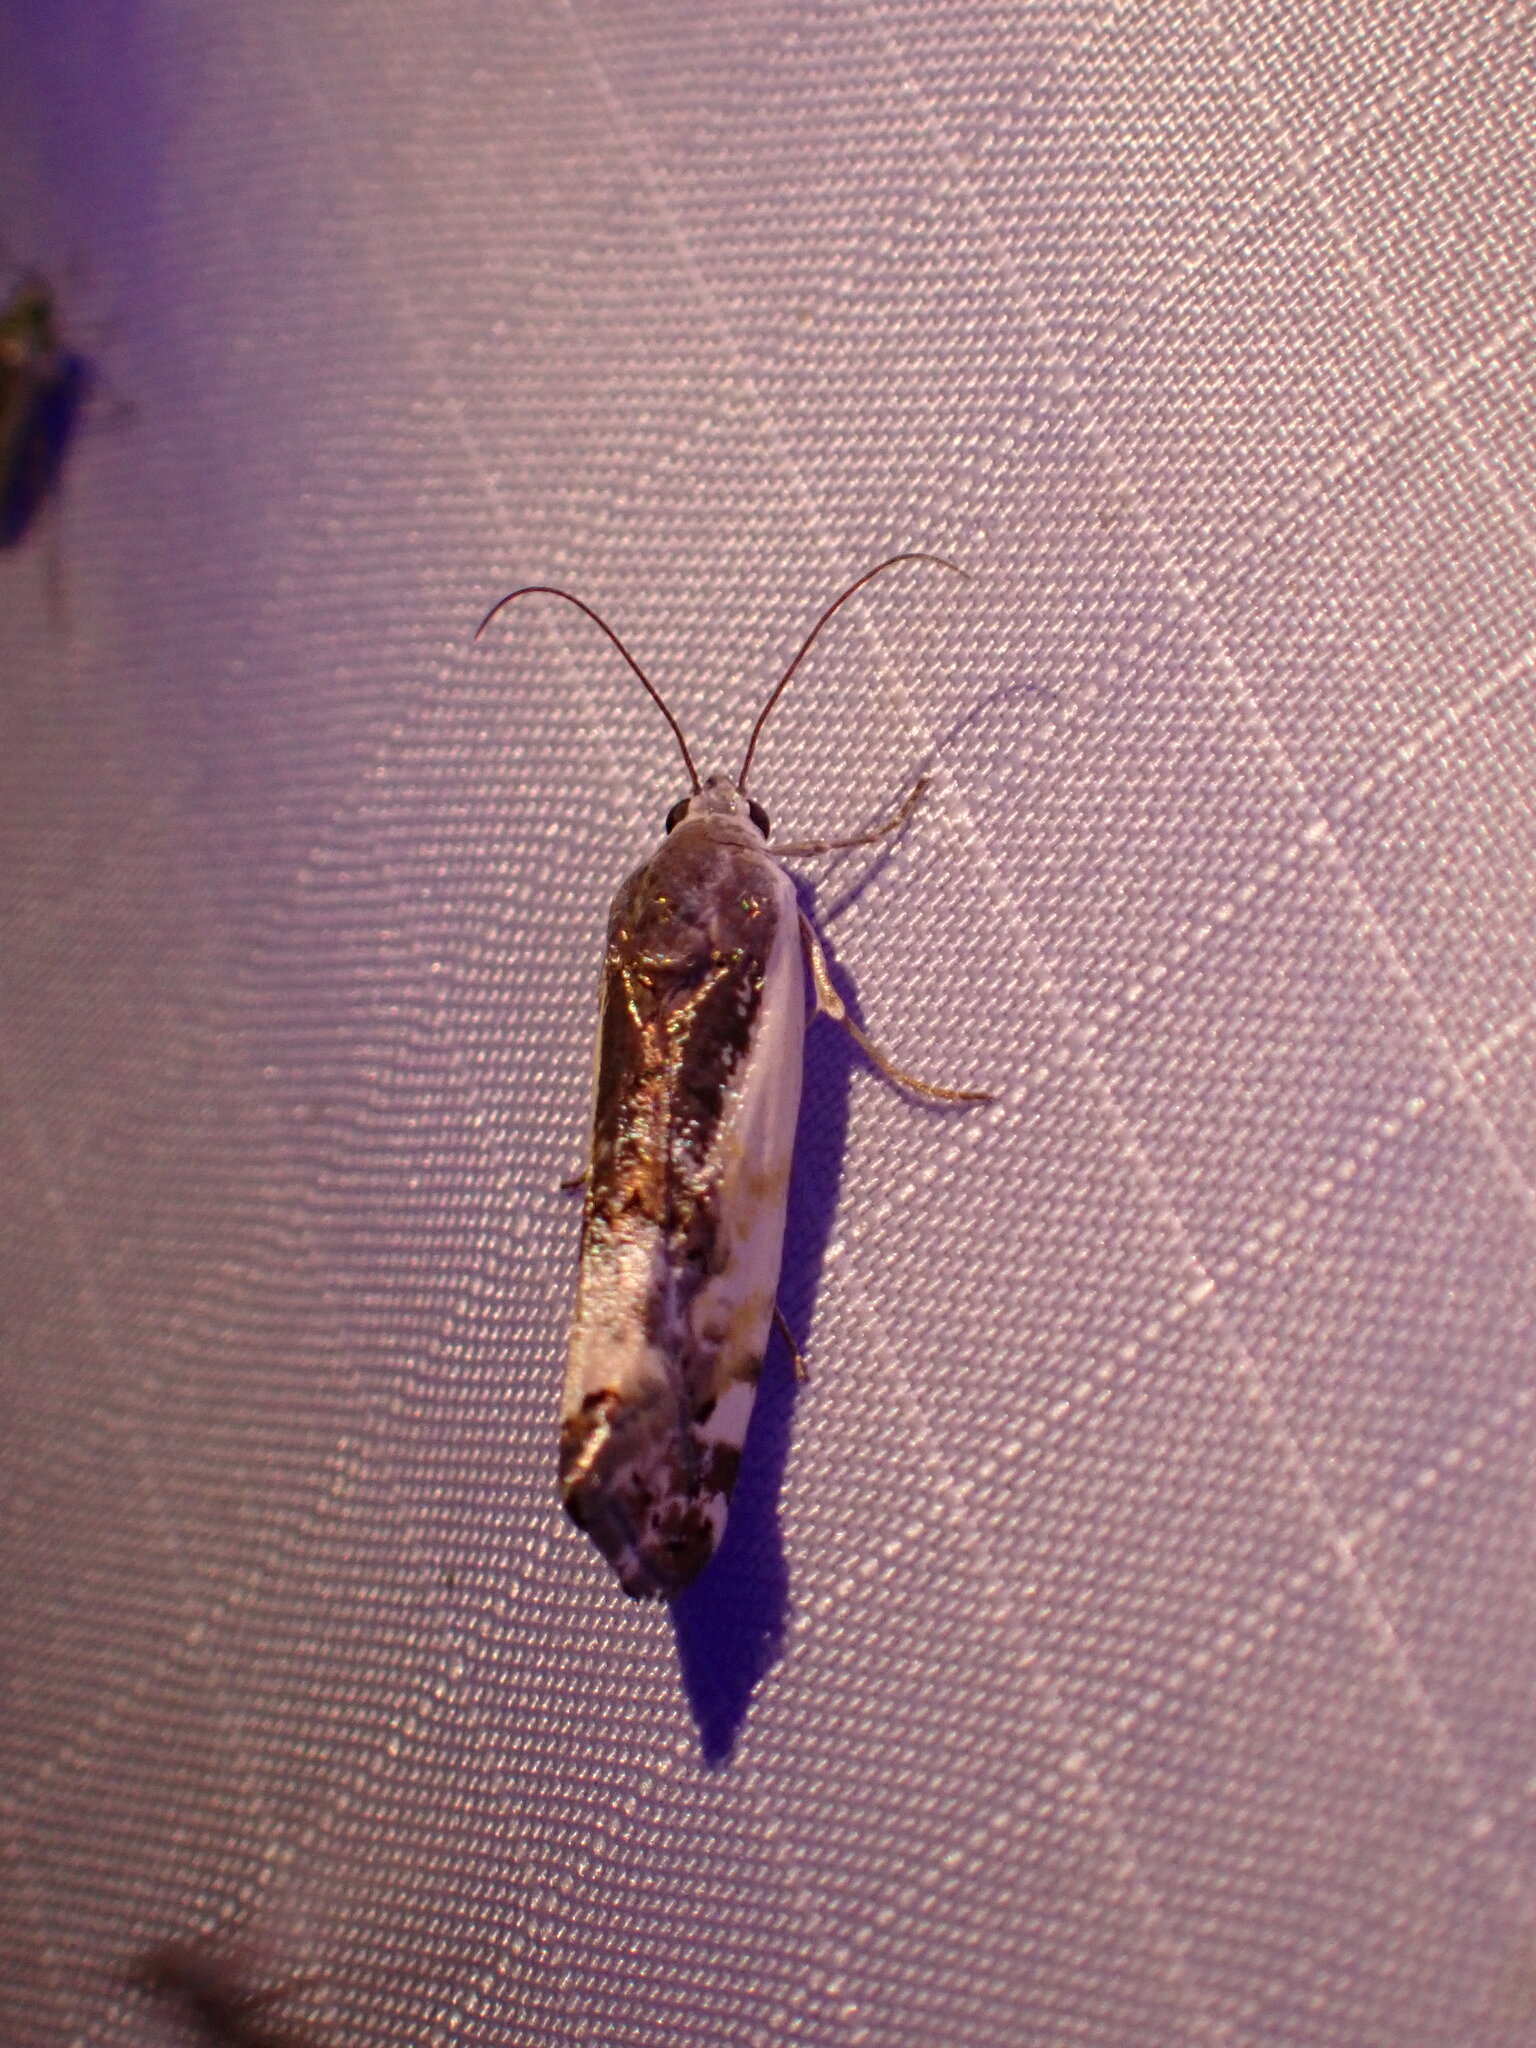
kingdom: Animalia
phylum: Arthropoda
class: Insecta
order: Lepidoptera
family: Noctuidae
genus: Acontia
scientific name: Acontia Tarache augustipennis
